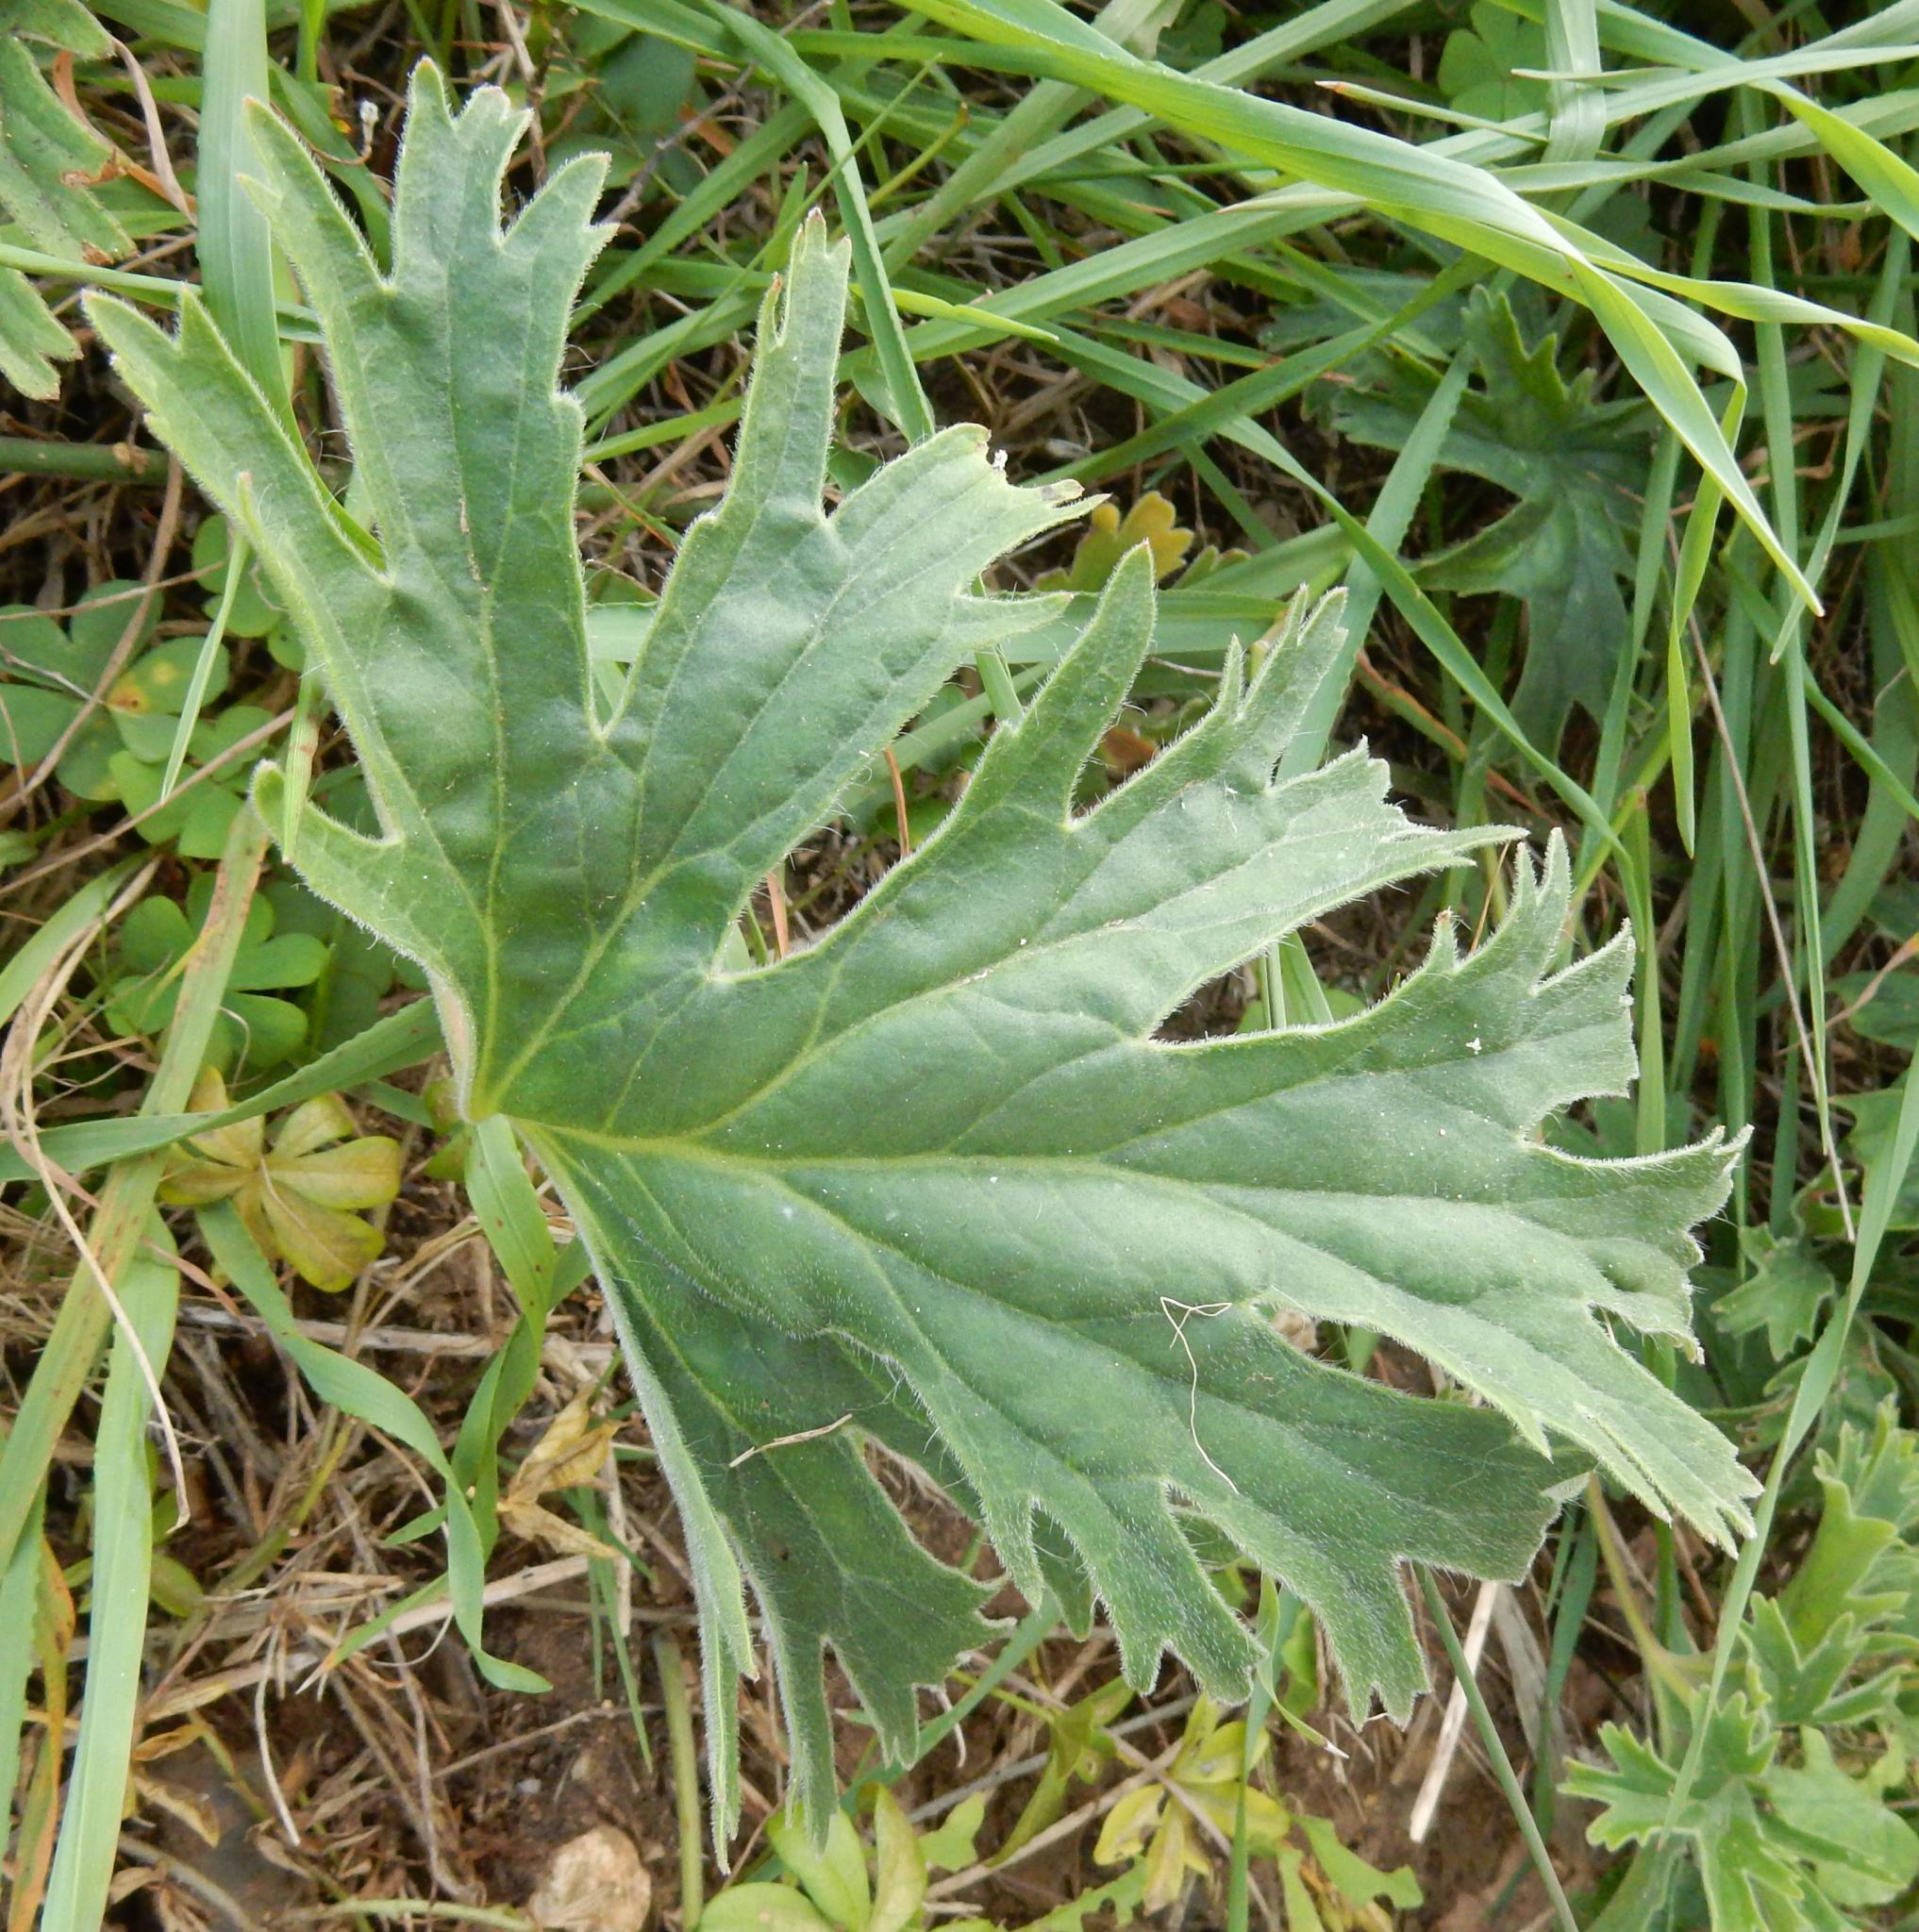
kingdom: Plantae
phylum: Tracheophyta
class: Magnoliopsida
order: Geraniales
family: Geraniaceae
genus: Pelargonium
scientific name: Pelargonium pulverulentum
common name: Powdered-leaf pelargonium
